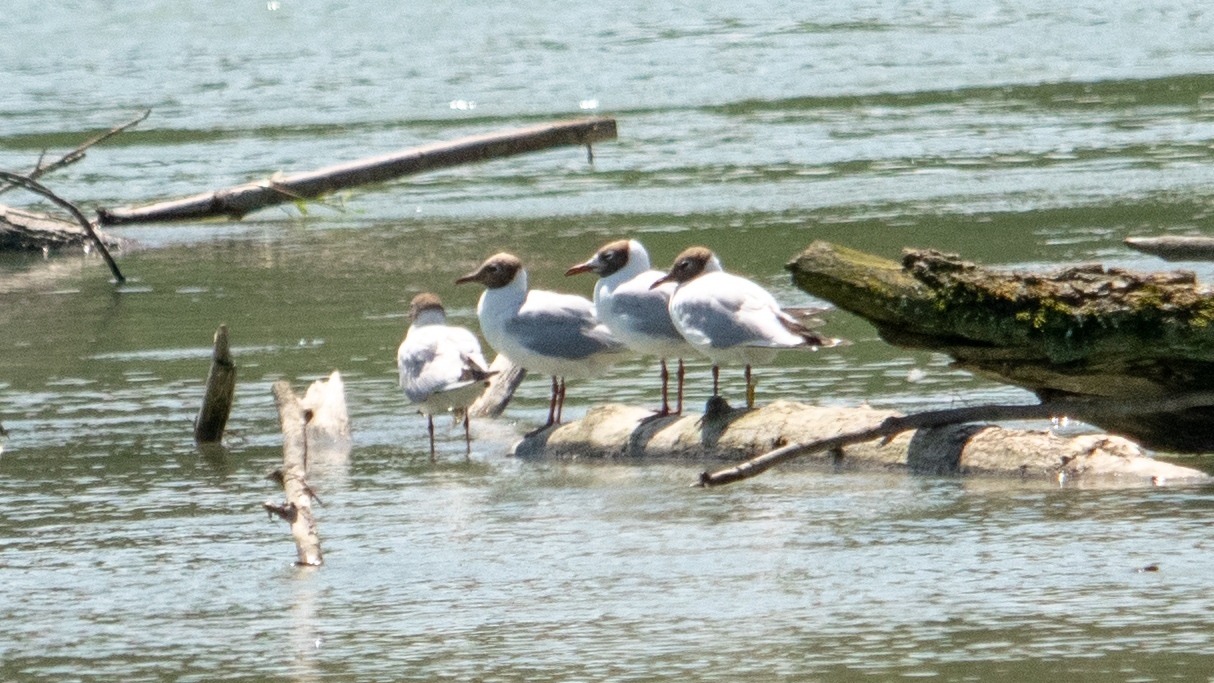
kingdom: Animalia
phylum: Chordata
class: Aves
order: Charadriiformes
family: Laridae
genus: Chroicocephalus
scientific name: Chroicocephalus ridibundus
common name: Black-headed gull
